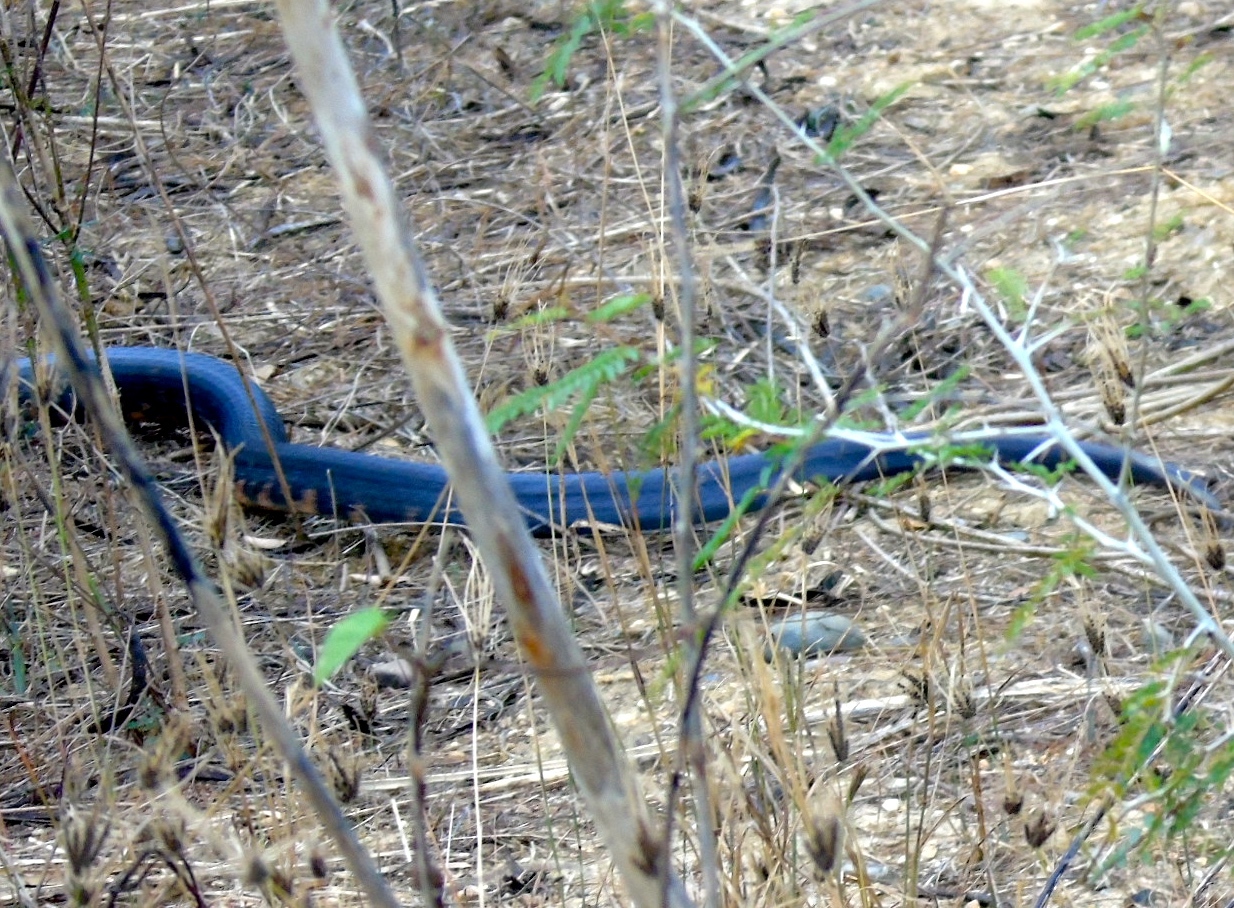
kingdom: Animalia
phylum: Chordata
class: Squamata
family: Colubridae
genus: Drymarchon
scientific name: Drymarchon melanurus
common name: Central american indigo snake
